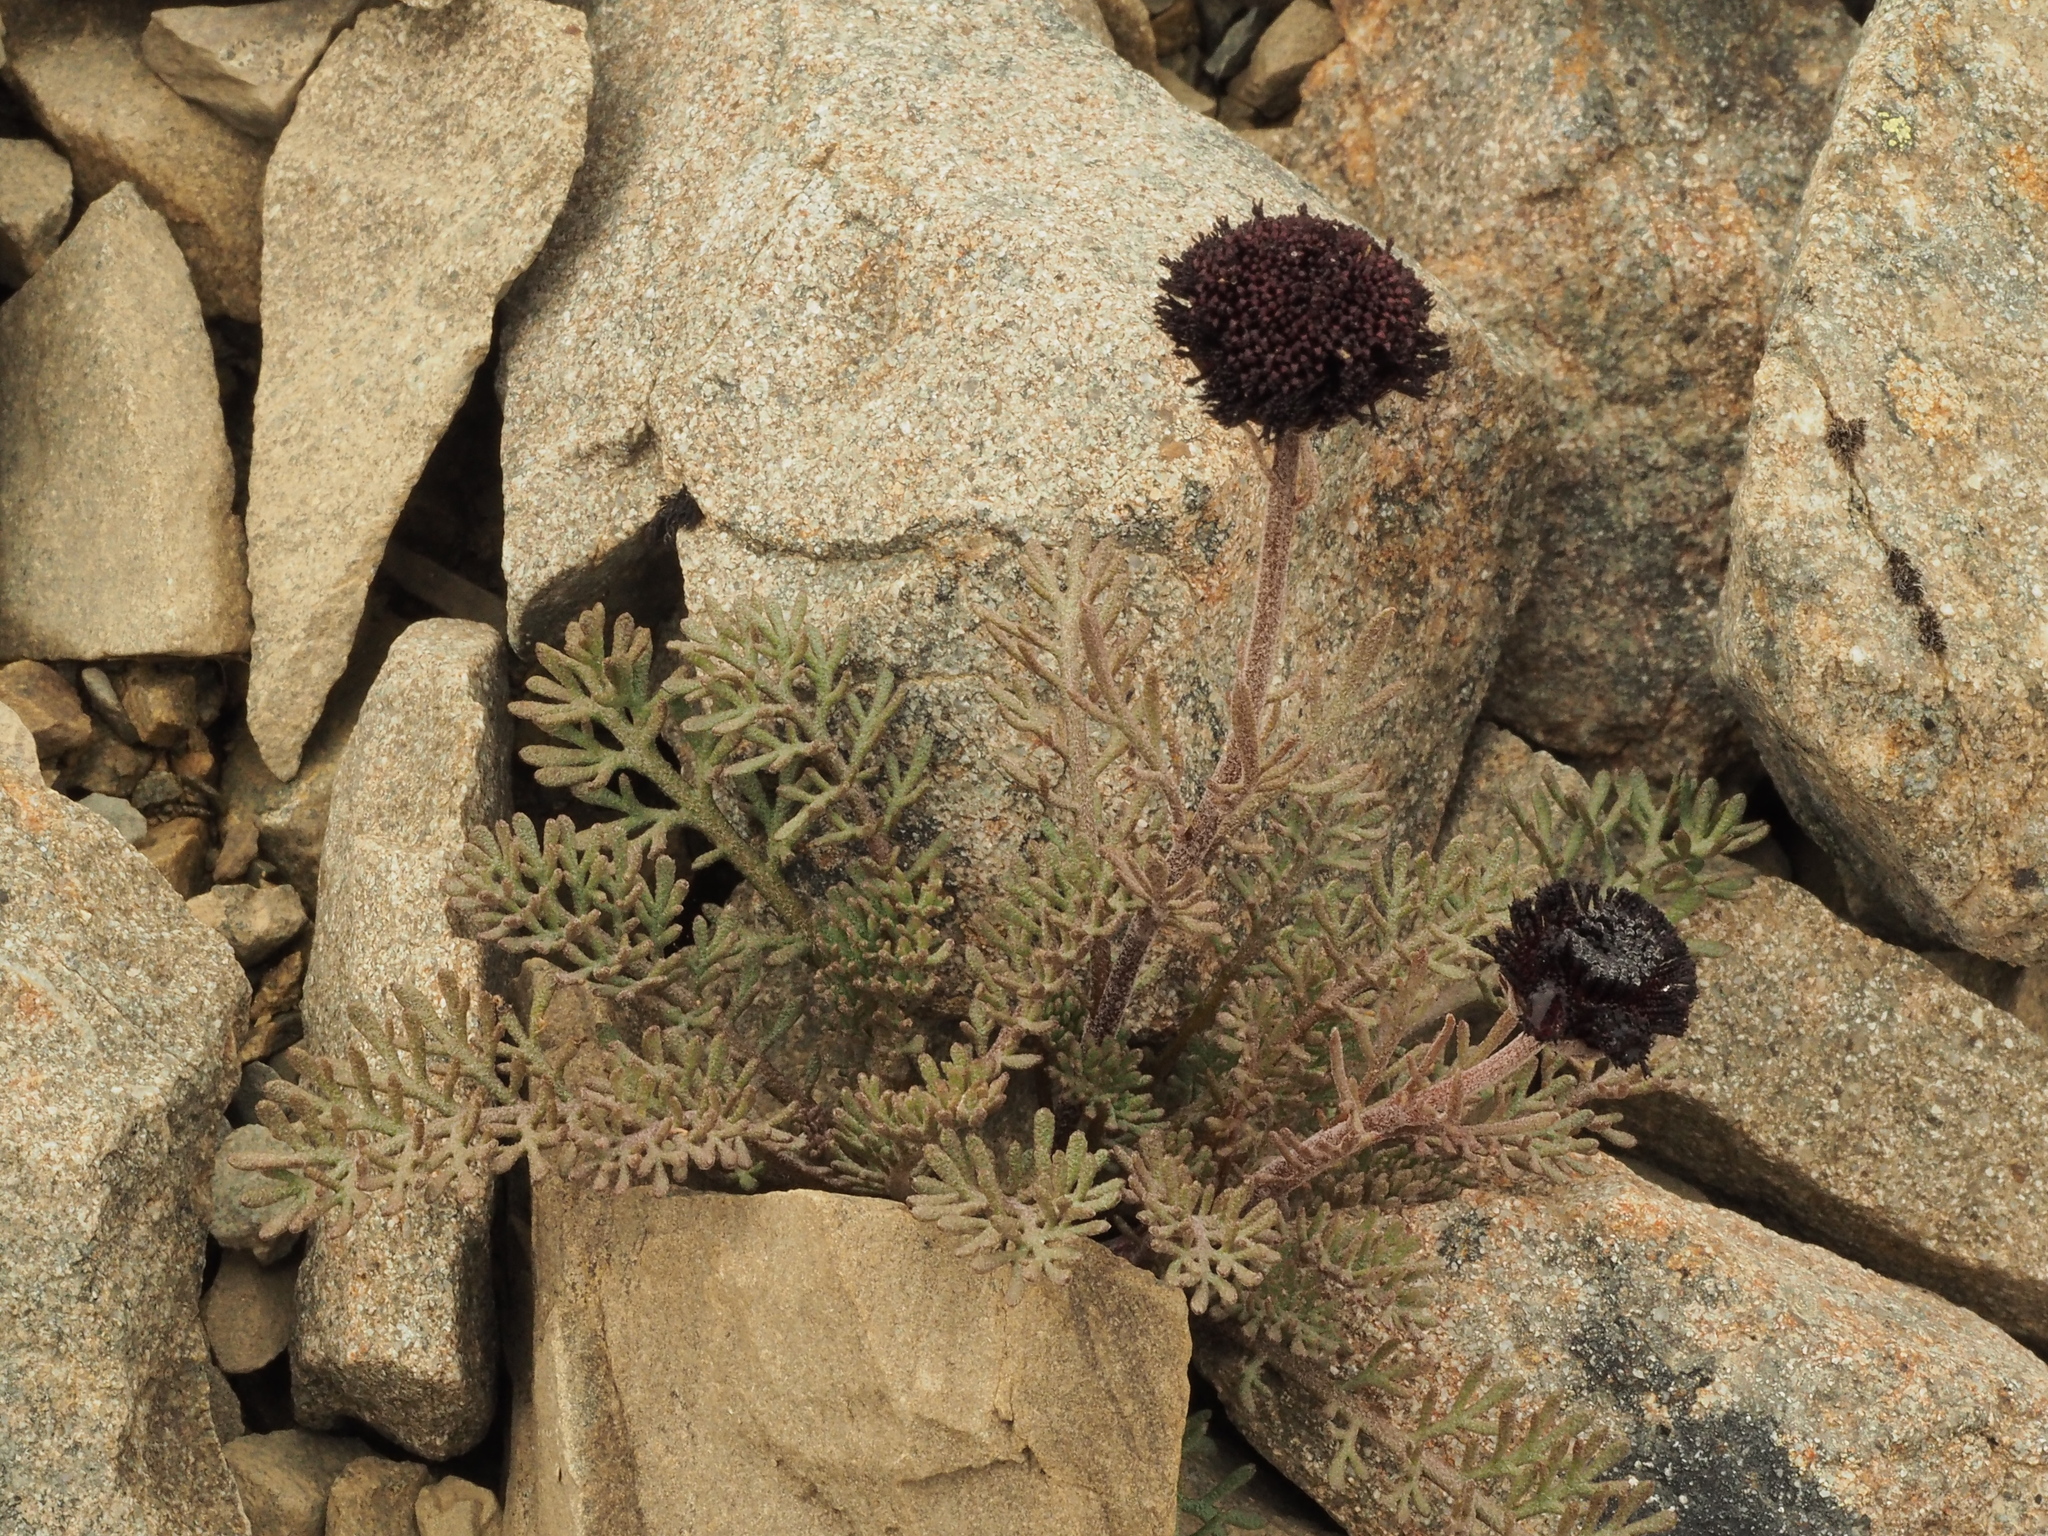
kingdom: Plantae
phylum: Tracheophyta
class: Magnoliopsida
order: Asterales
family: Asteraceae
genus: Leptinella
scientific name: Leptinella atrata
